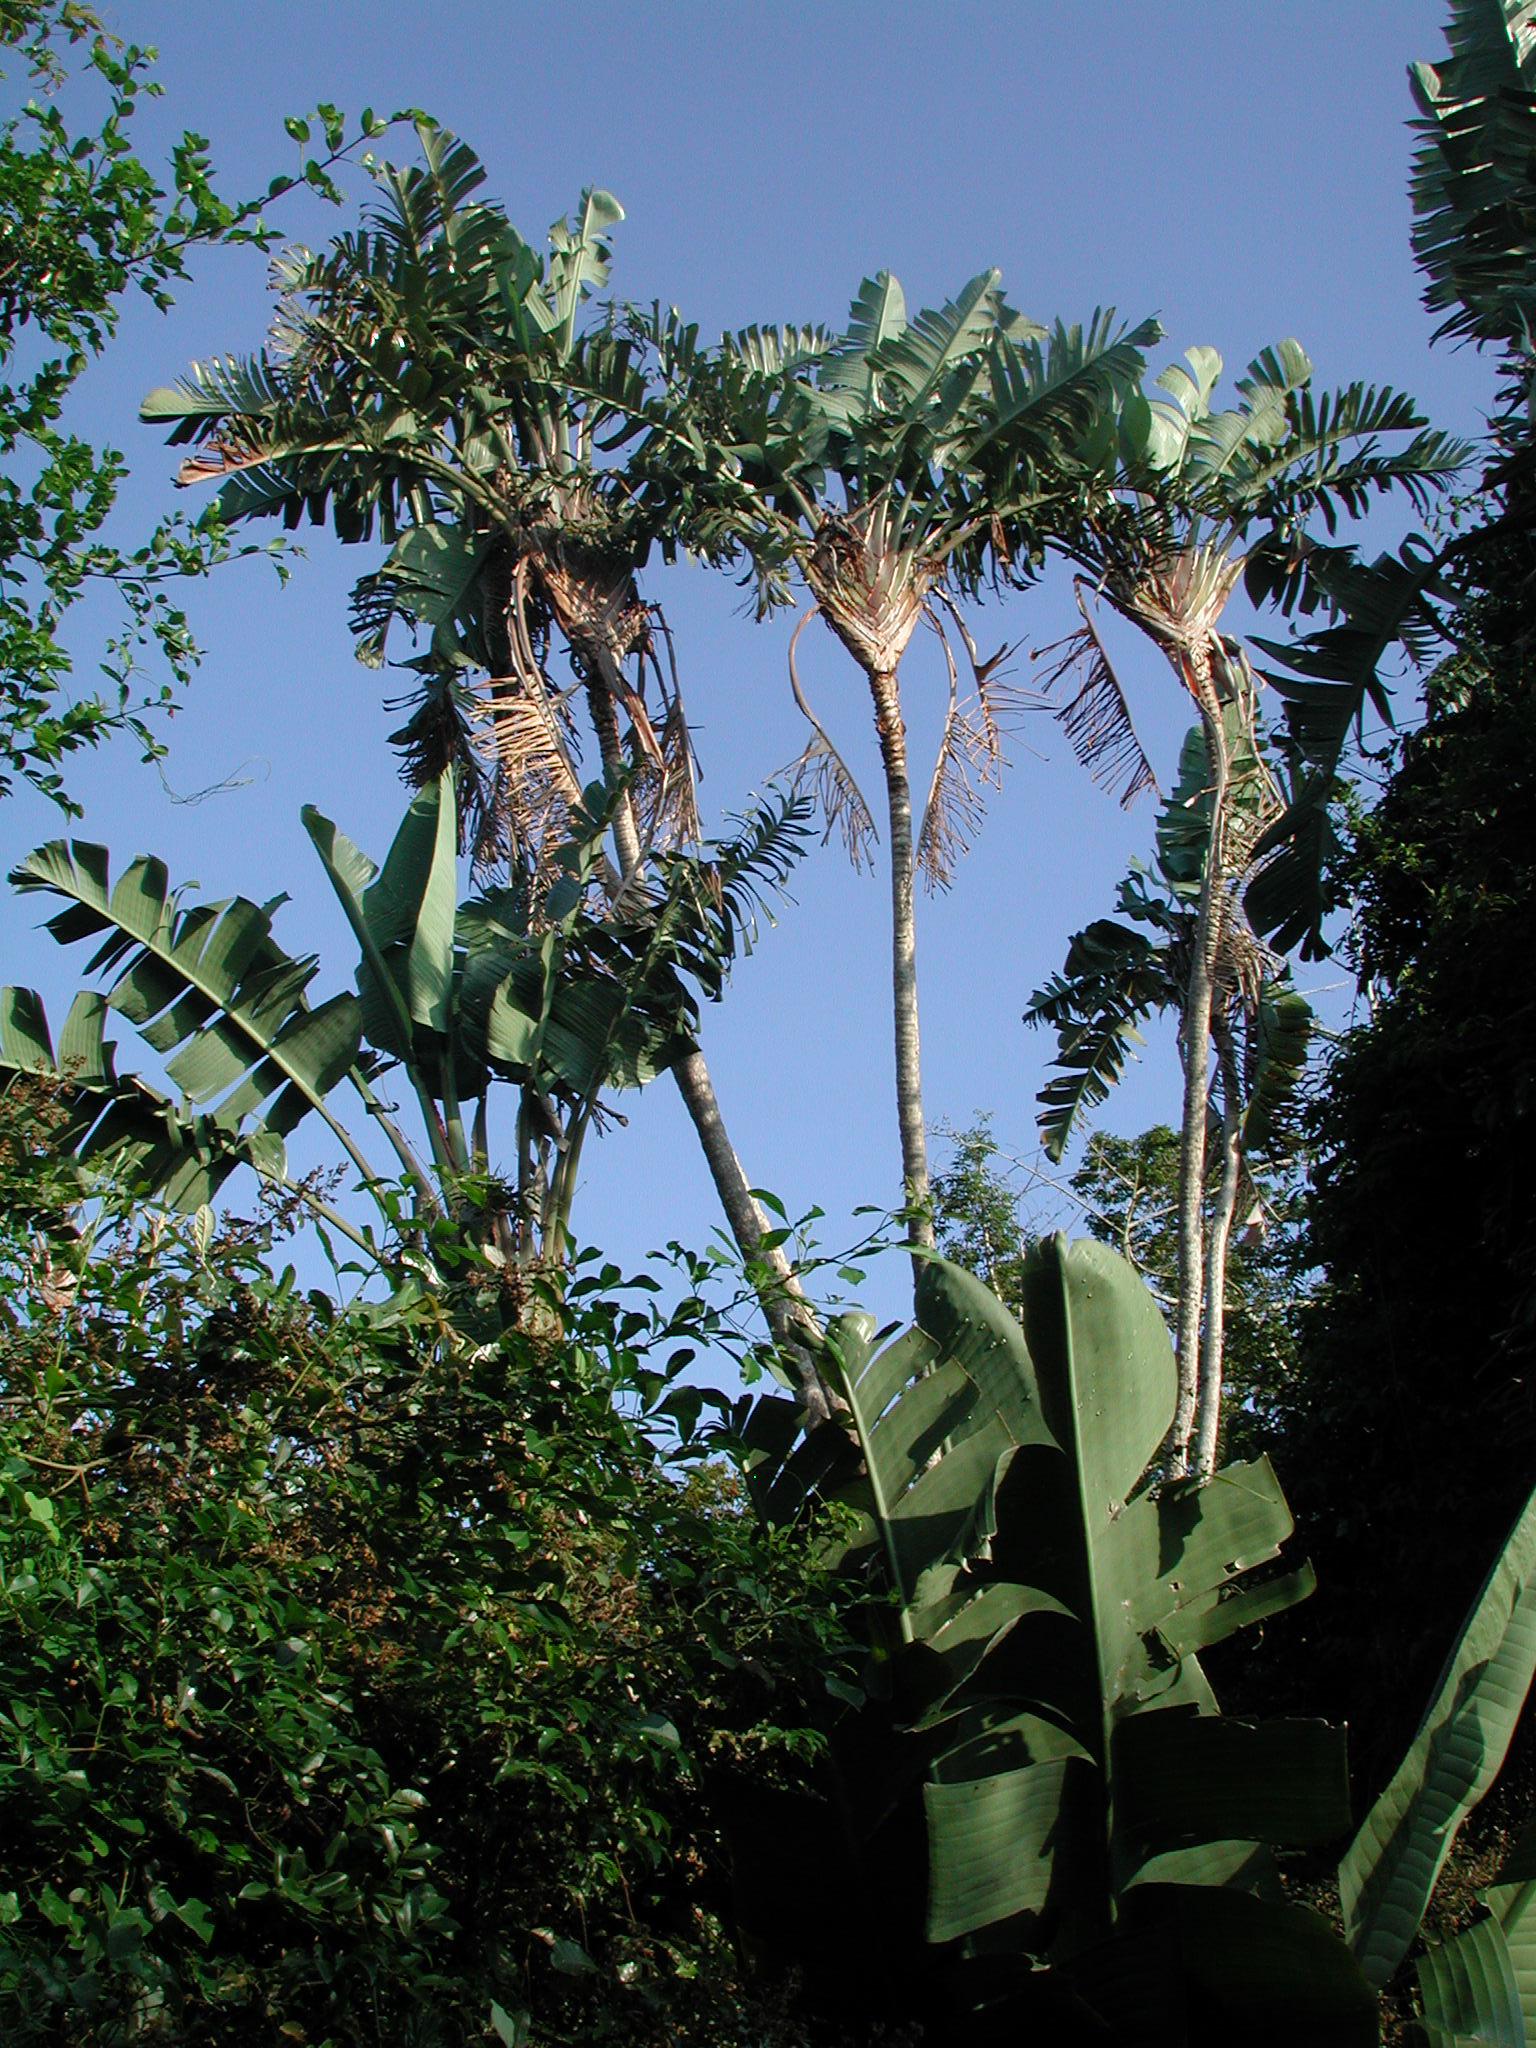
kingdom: Plantae
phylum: Tracheophyta
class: Liliopsida
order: Zingiberales
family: Strelitziaceae
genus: Strelitzia
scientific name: Strelitzia nicolai
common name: Bird-of-paradise tree
